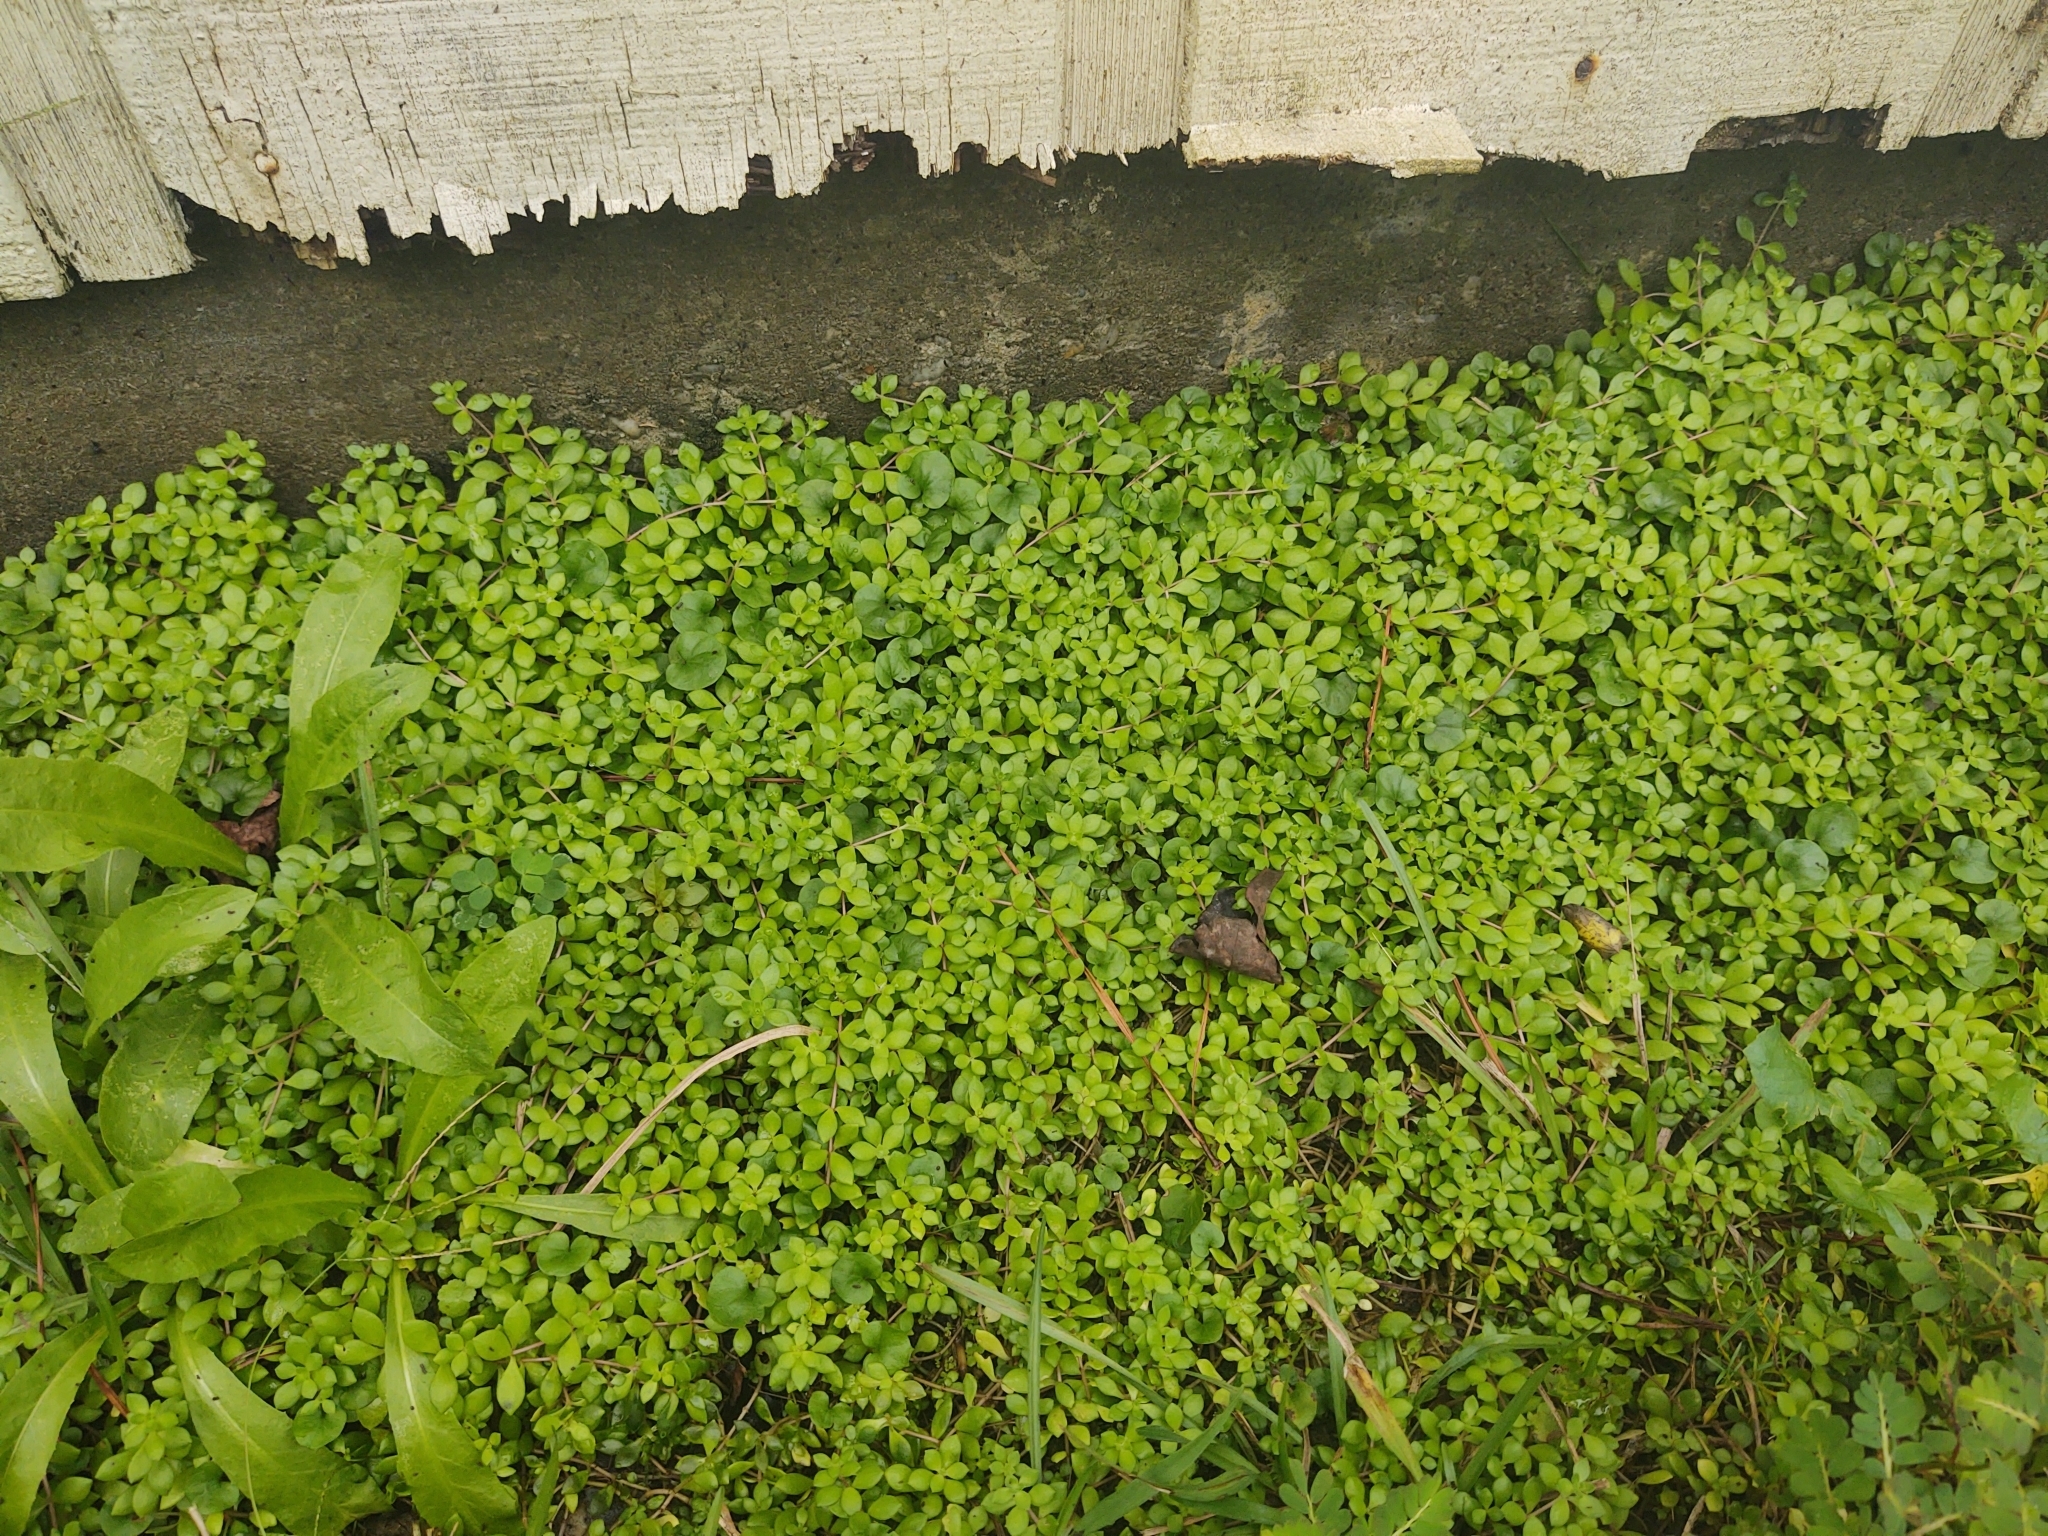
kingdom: Plantae
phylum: Tracheophyta
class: Magnoliopsida
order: Saxifragales
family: Crassulaceae
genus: Sedum
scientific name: Sedum sarmentosum
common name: Stringy stonecrop
